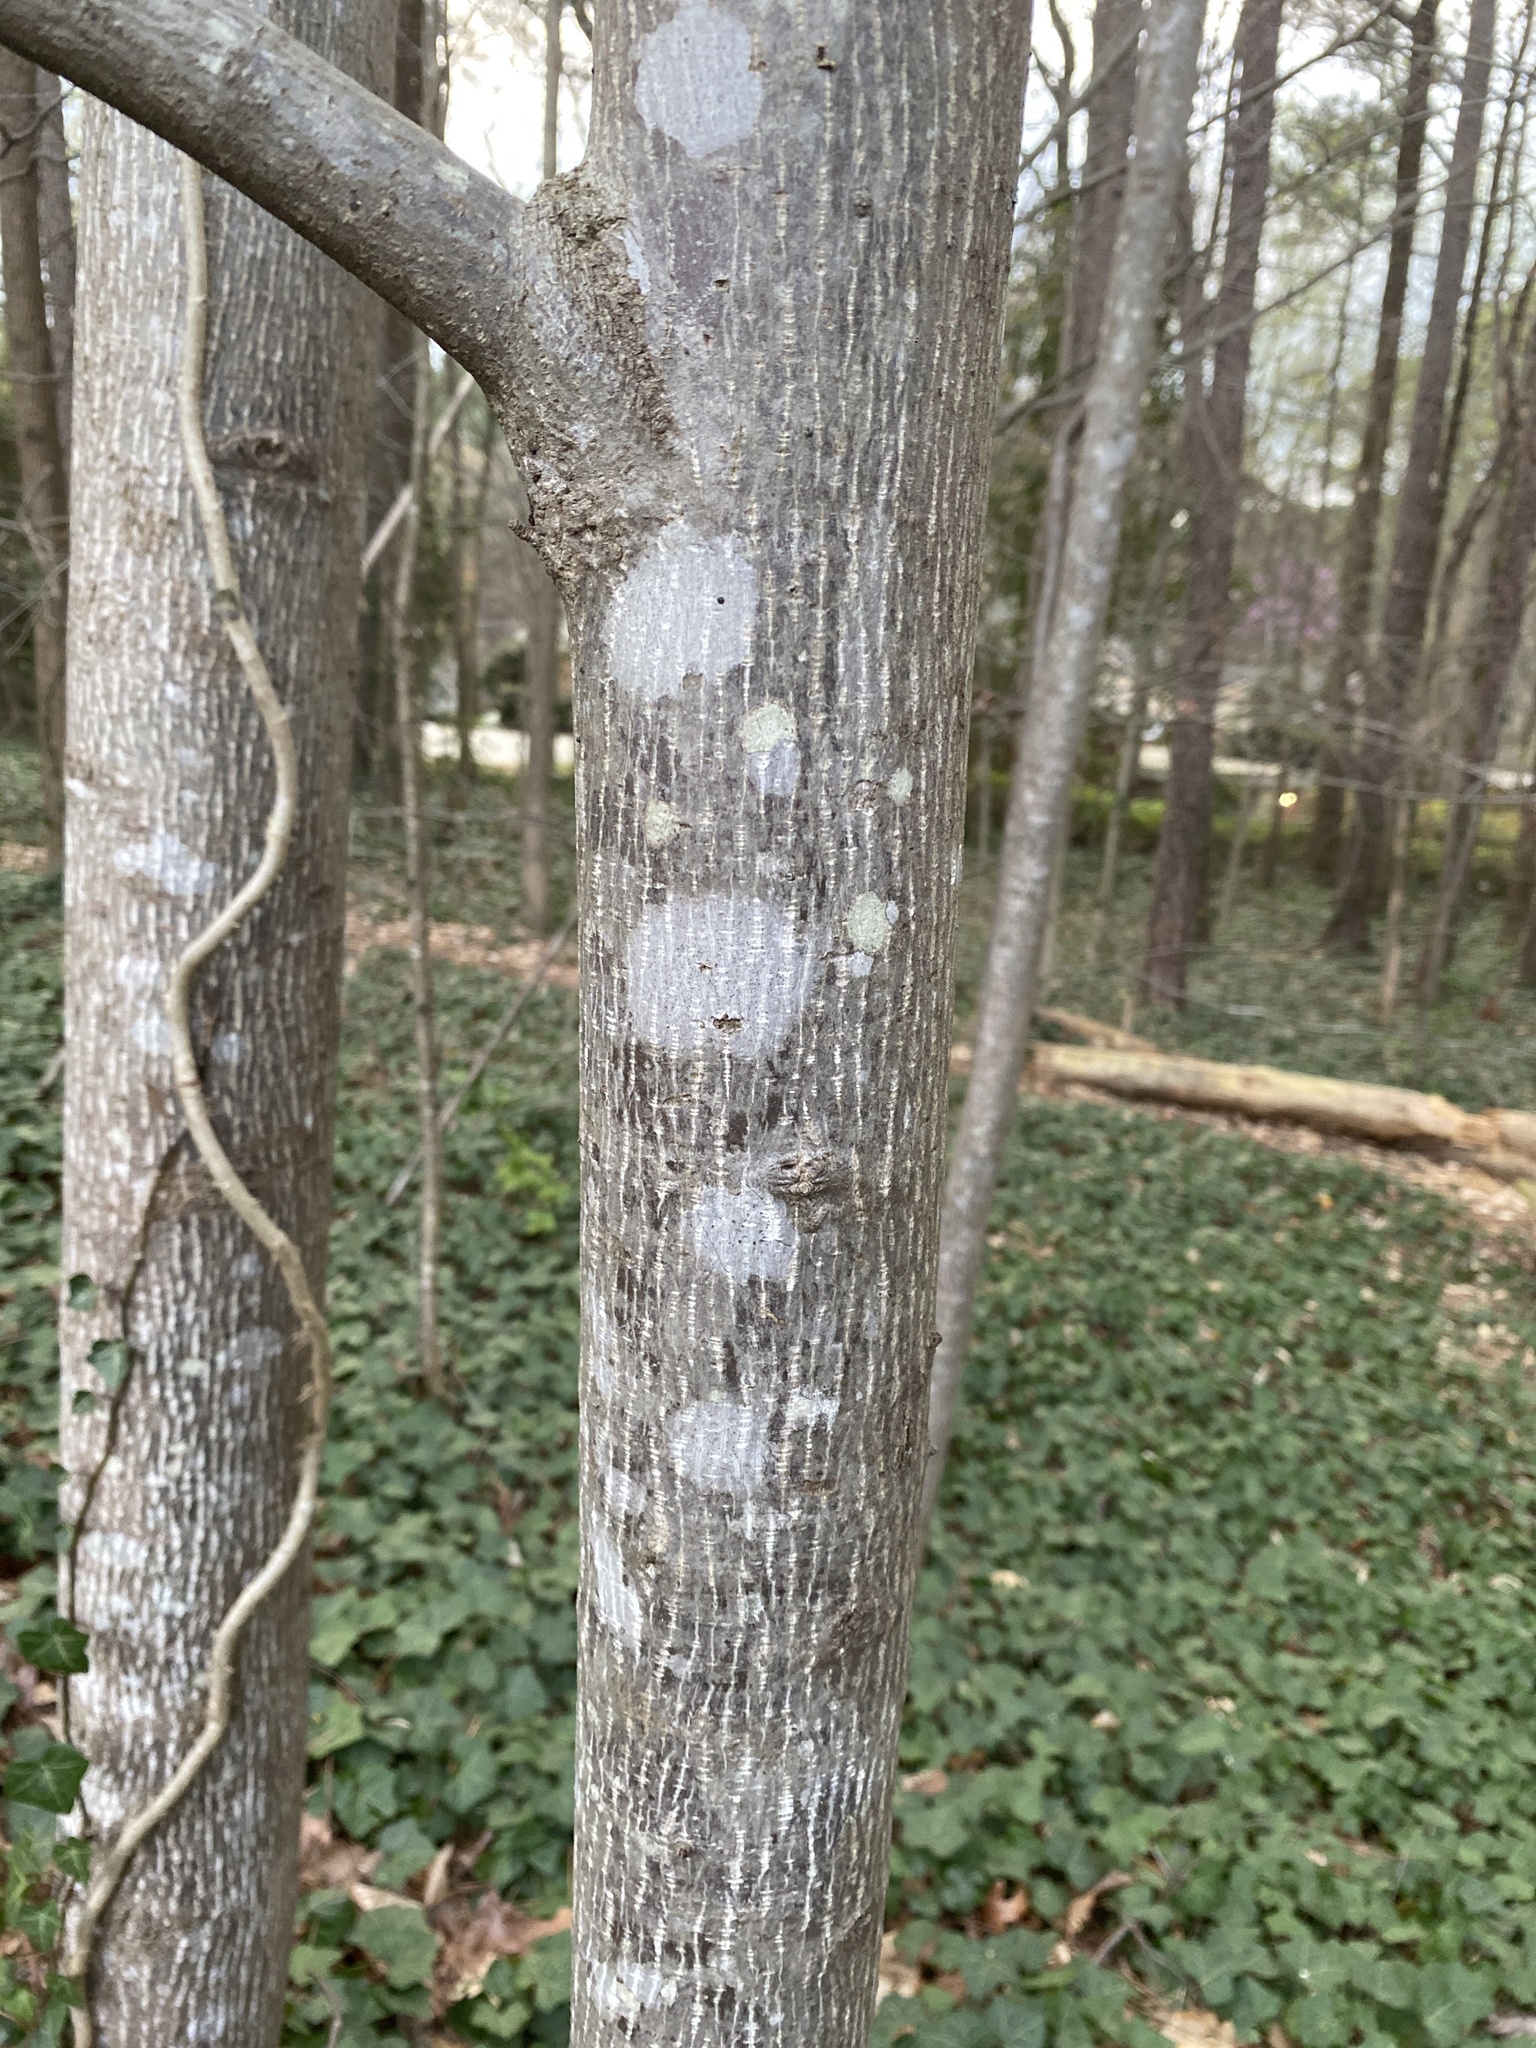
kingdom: Plantae
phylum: Tracheophyta
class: Magnoliopsida
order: Magnoliales
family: Magnoliaceae
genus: Liriodendron
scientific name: Liriodendron tulipifera
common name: Tulip tree
